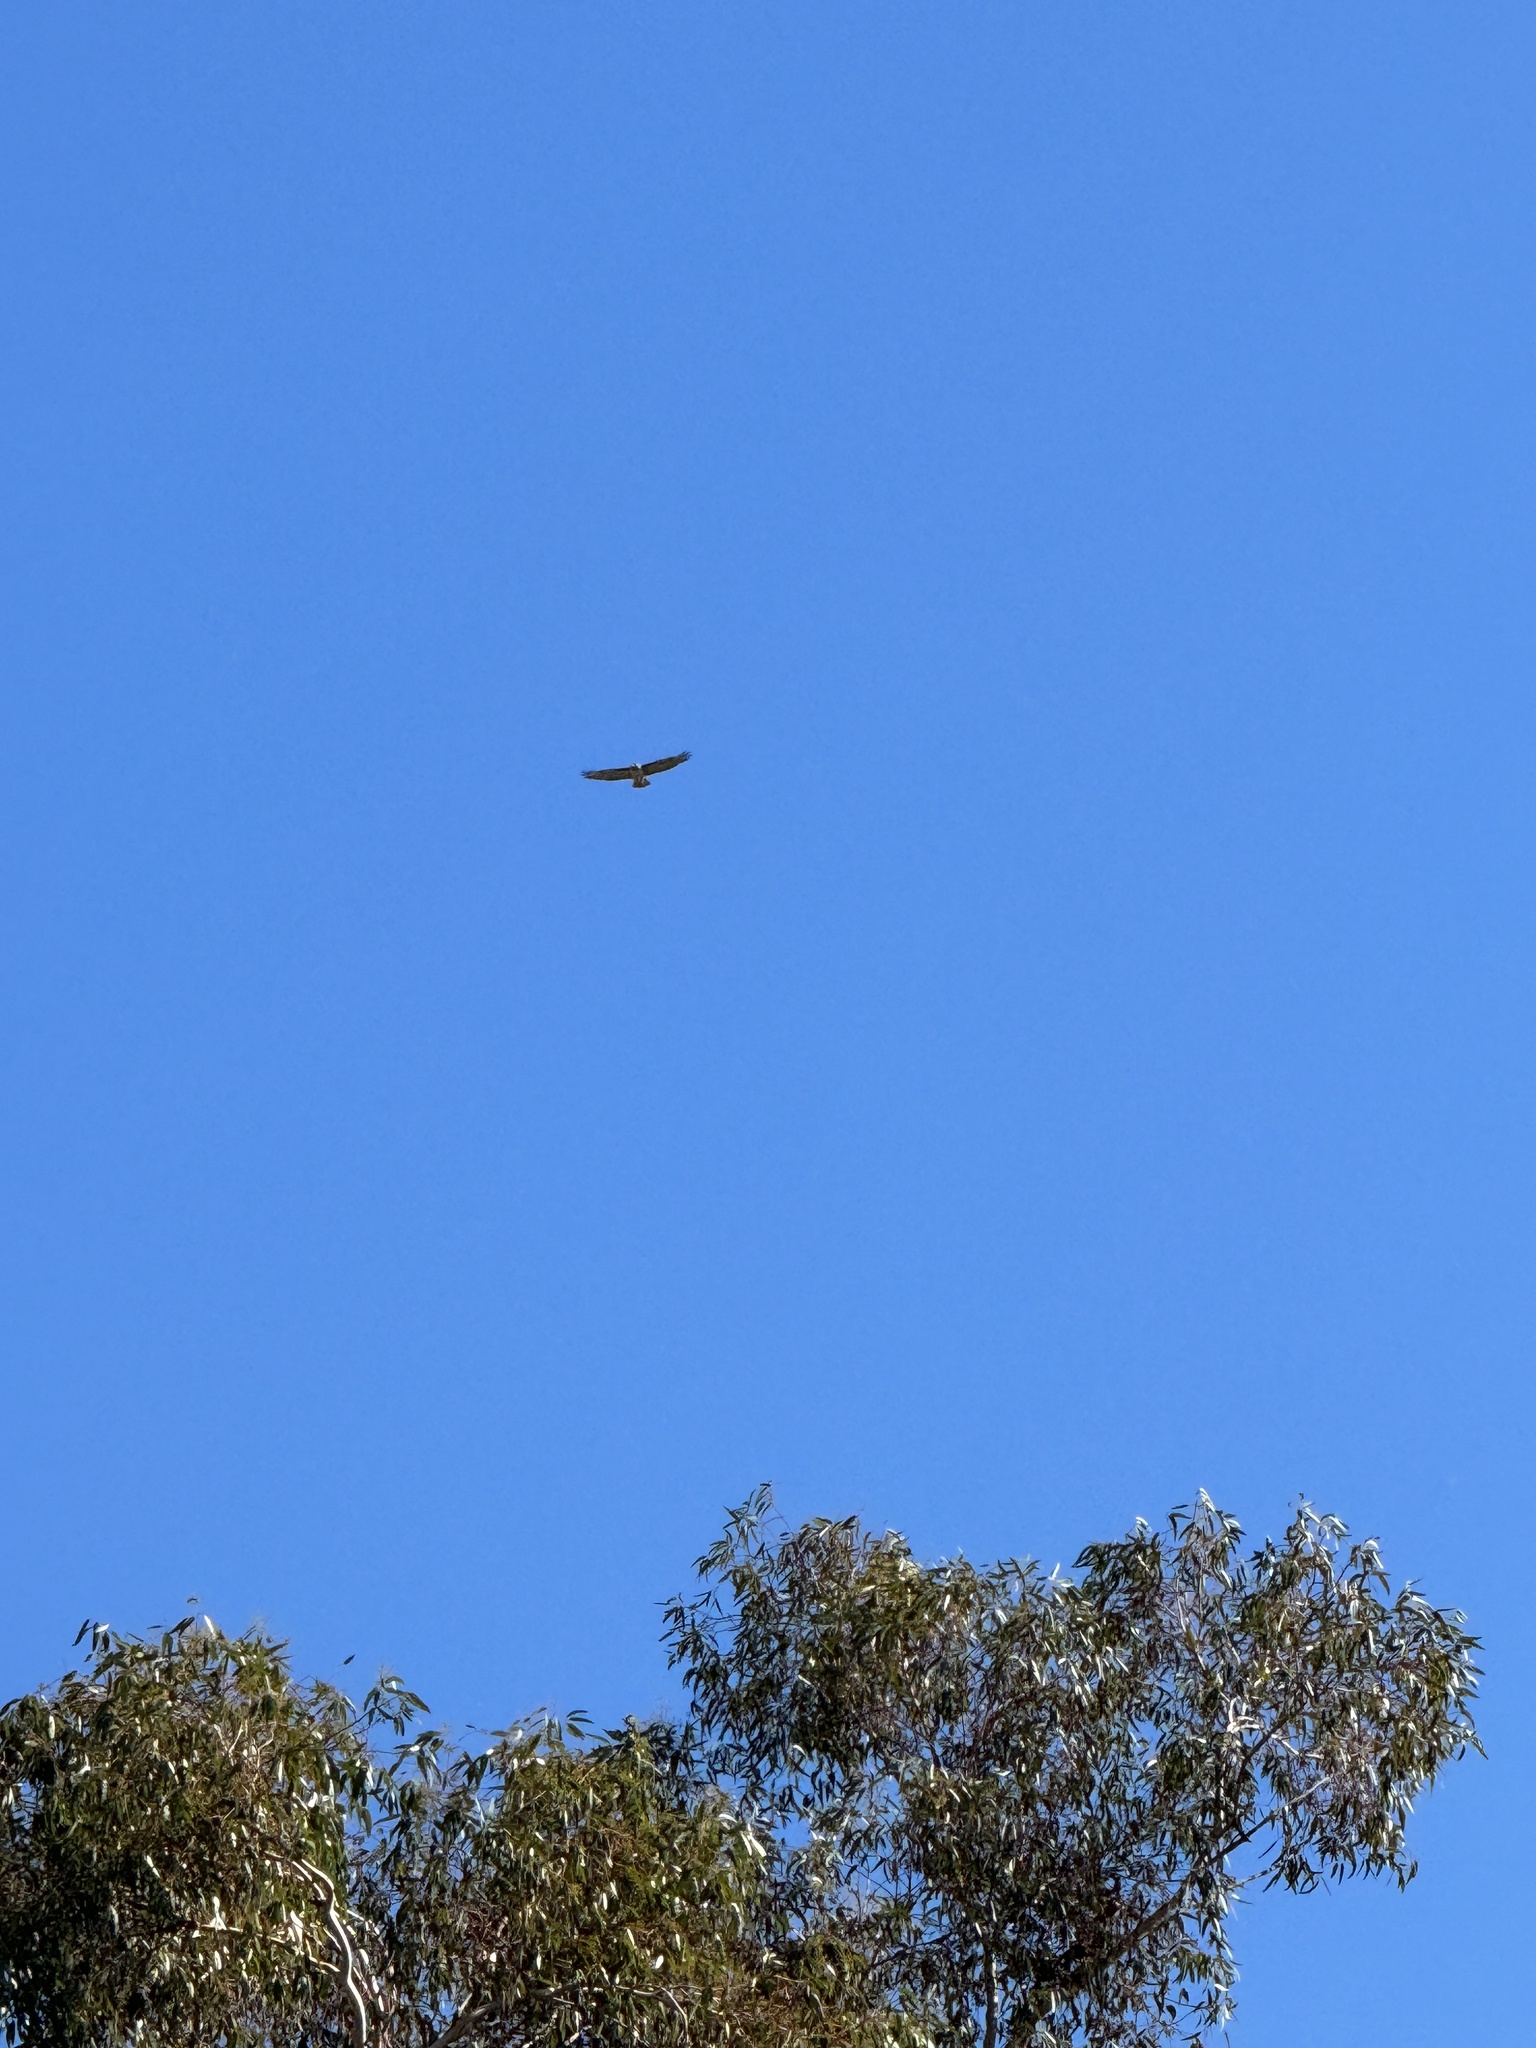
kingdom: Animalia
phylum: Chordata
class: Aves
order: Accipitriformes
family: Accipitridae
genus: Buteo
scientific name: Buteo jamaicensis
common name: Red-tailed hawk
